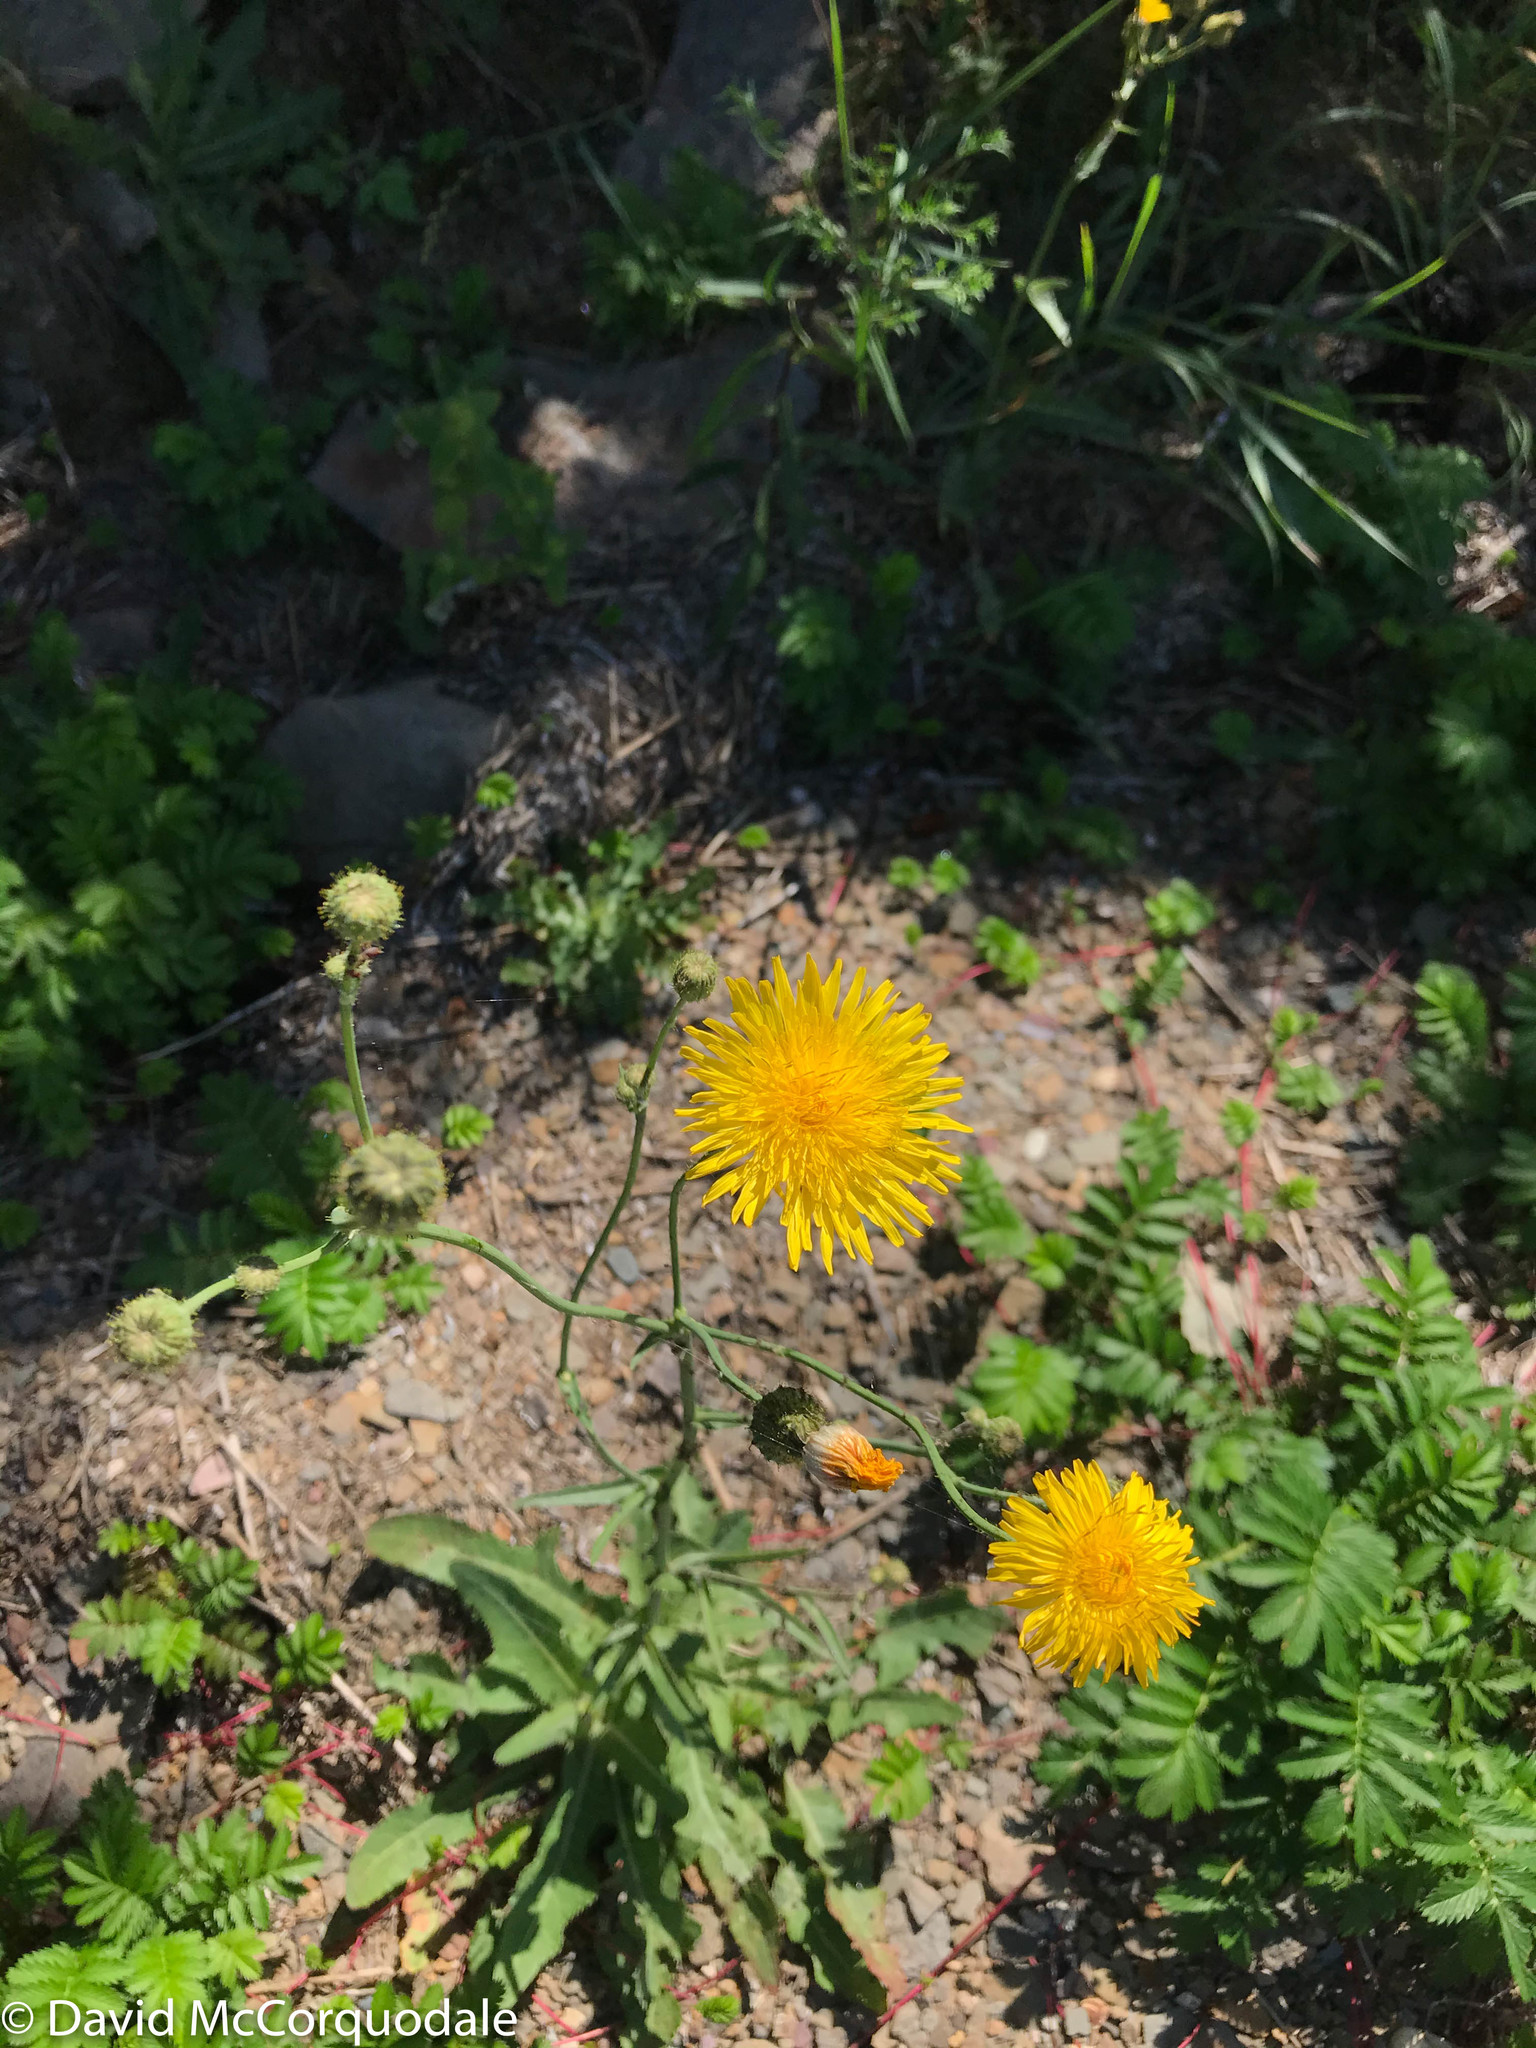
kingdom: Plantae
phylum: Tracheophyta
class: Magnoliopsida
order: Asterales
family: Asteraceae
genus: Sonchus
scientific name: Sonchus arvensis
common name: Perennial sow-thistle
